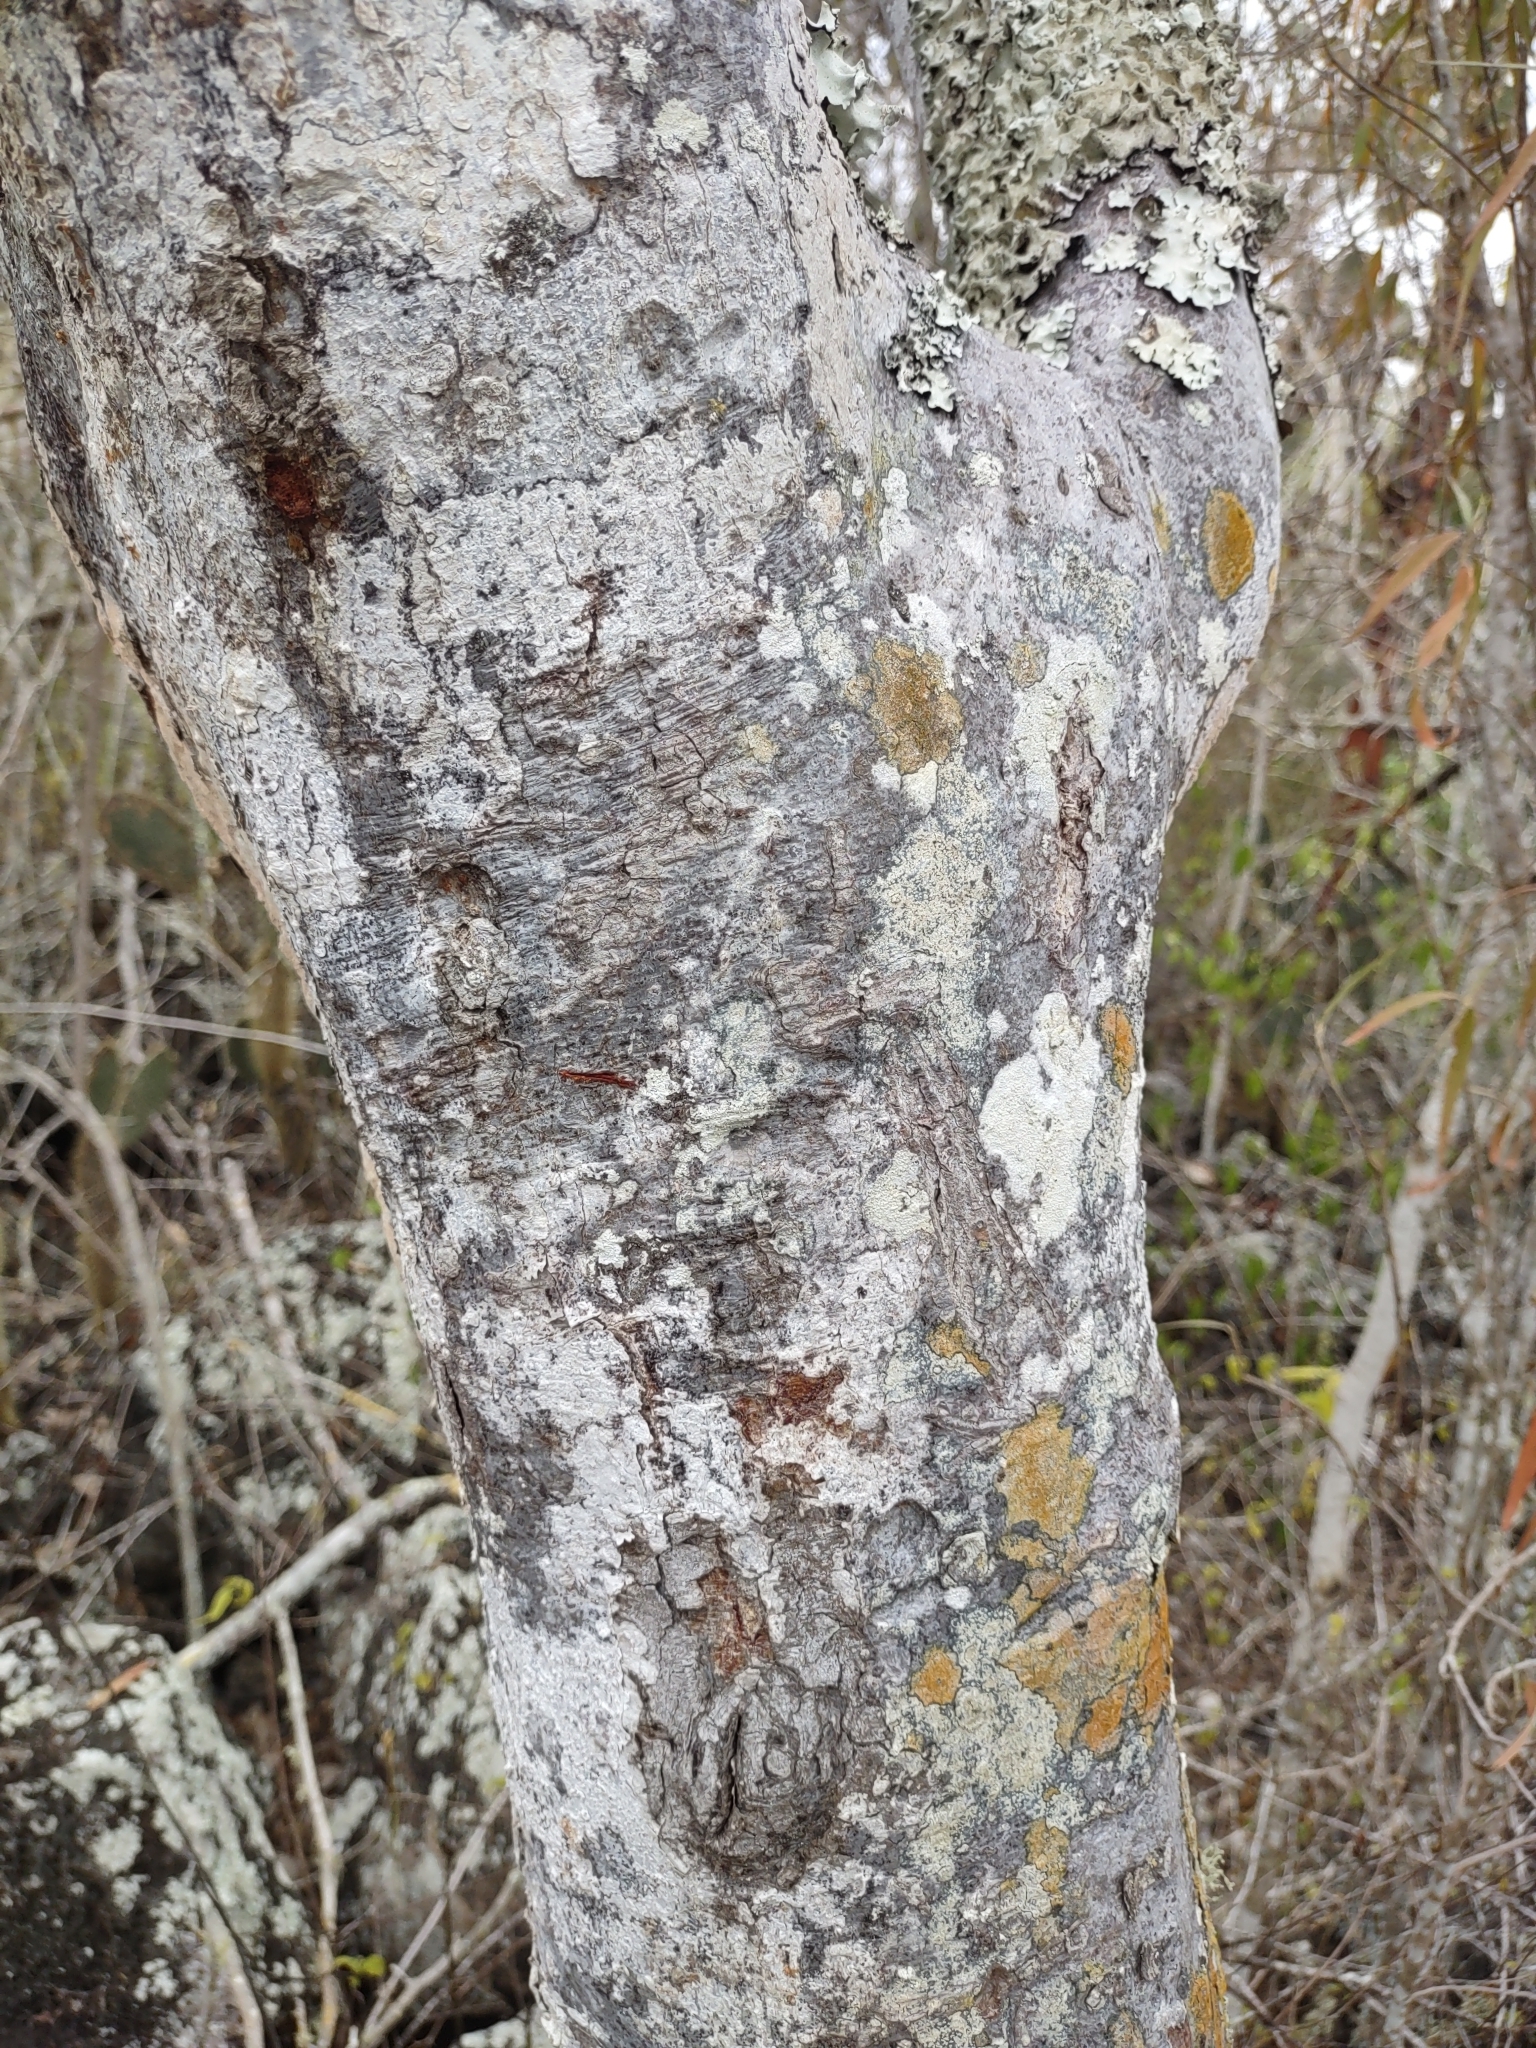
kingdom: Plantae
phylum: Tracheophyta
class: Magnoliopsida
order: Sapindales
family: Burseraceae
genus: Bursera
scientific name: Bursera graveolens
